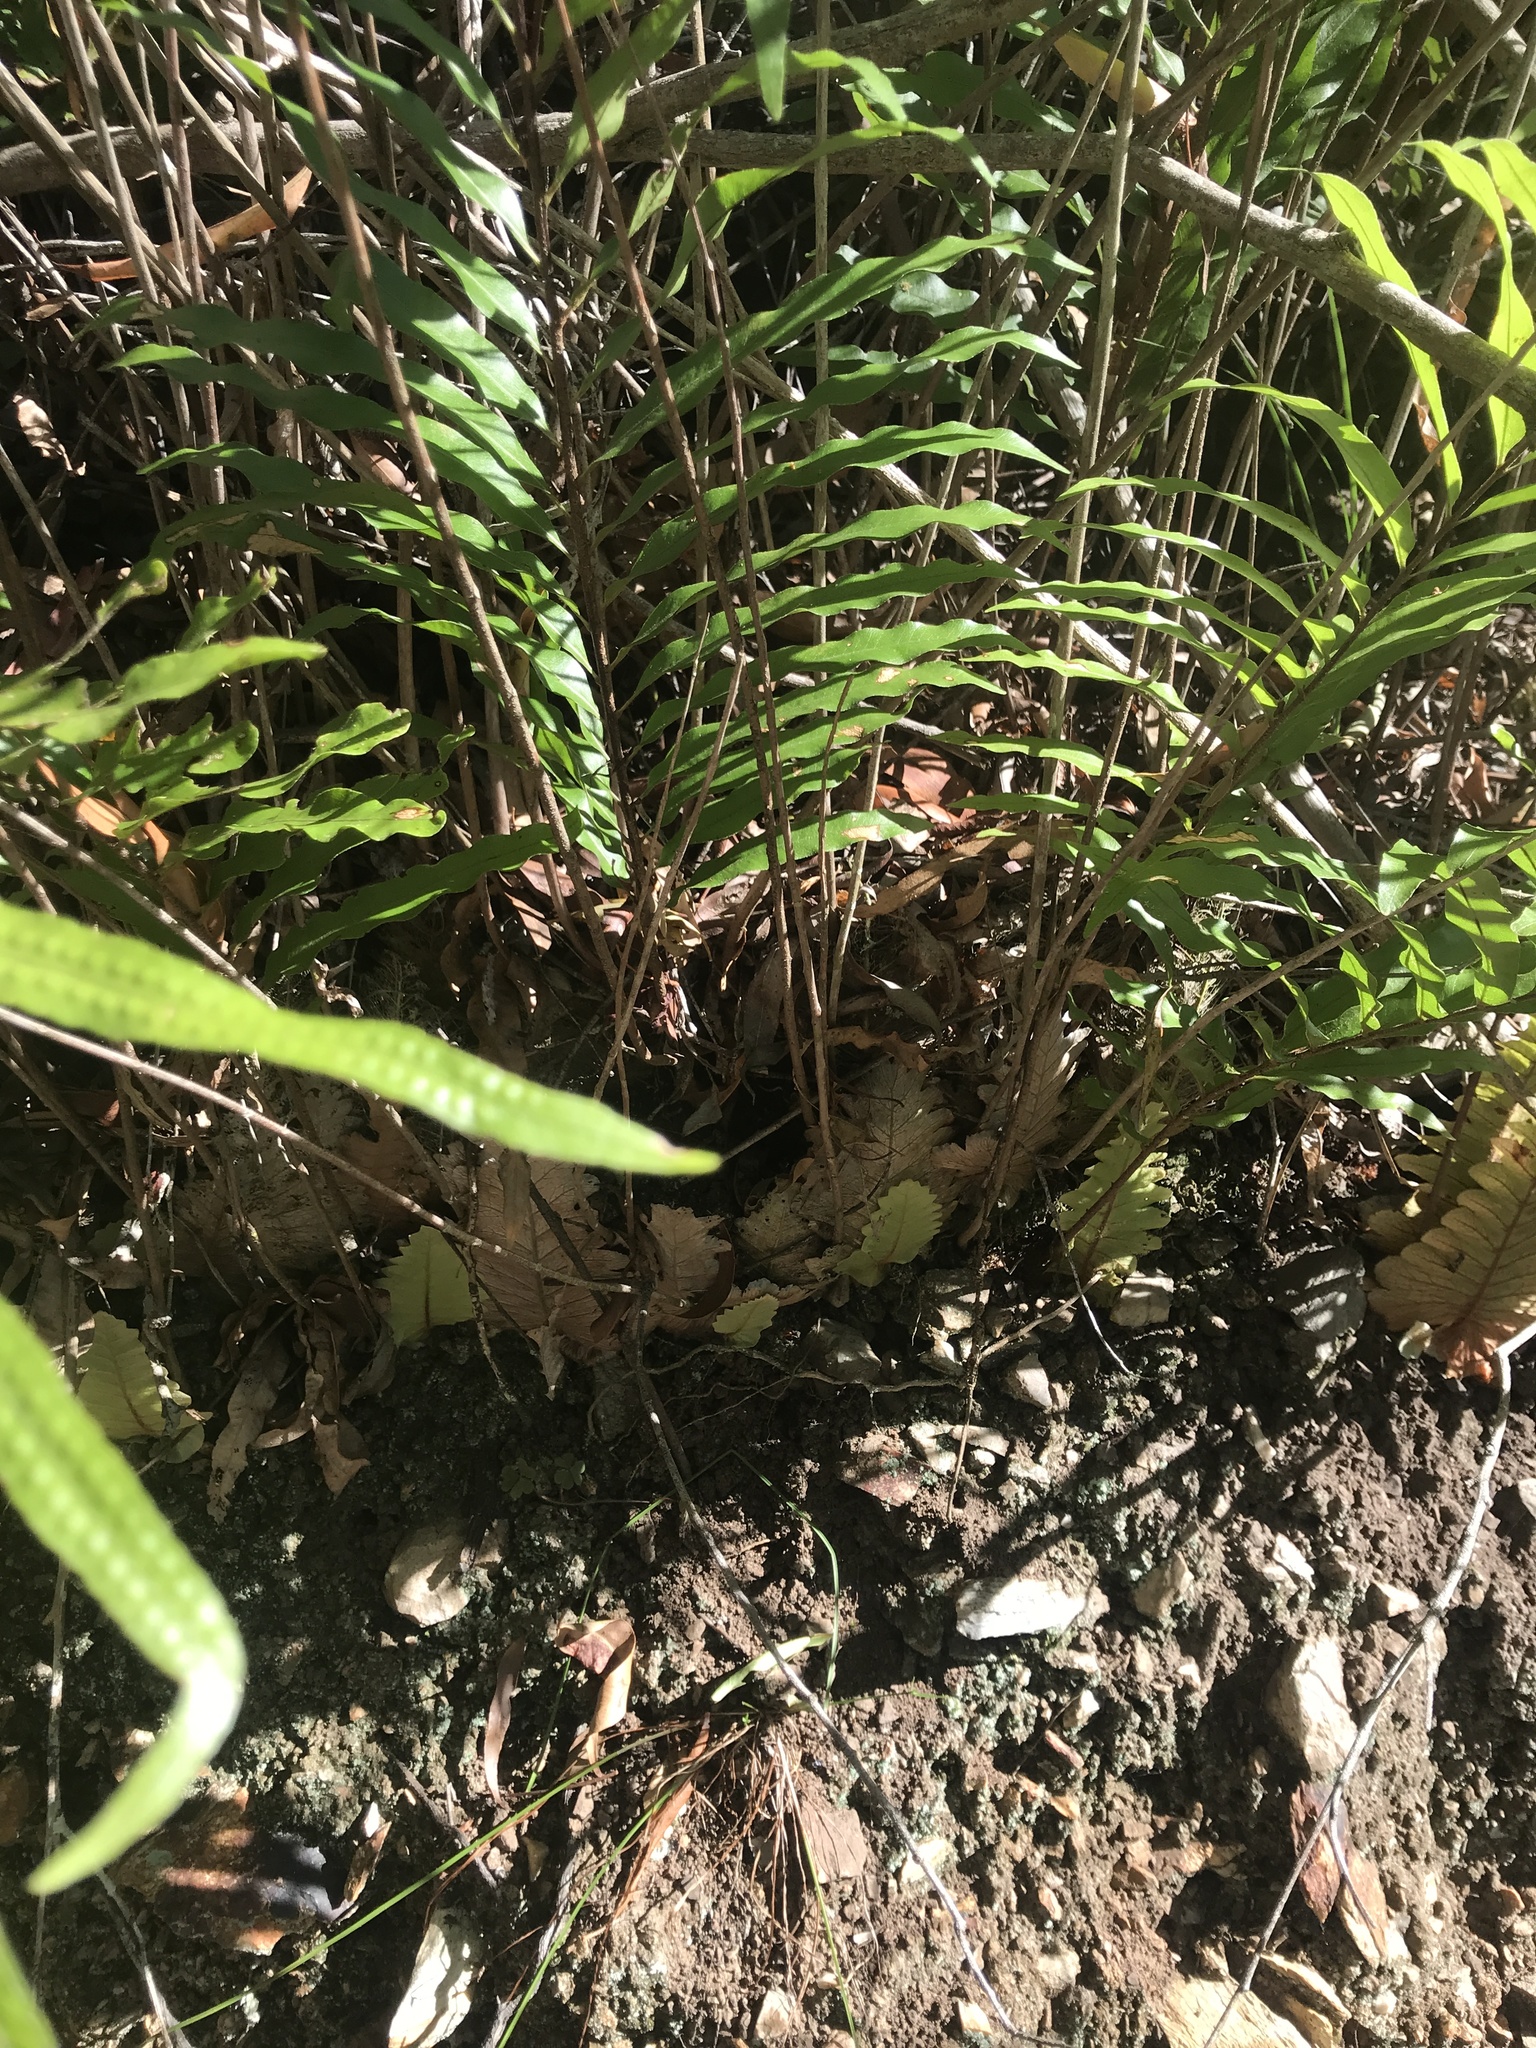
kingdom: Plantae
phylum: Tracheophyta
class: Polypodiopsida
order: Polypodiales
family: Polypodiaceae
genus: Drynaria
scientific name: Drynaria rigidula
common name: Basket fern
